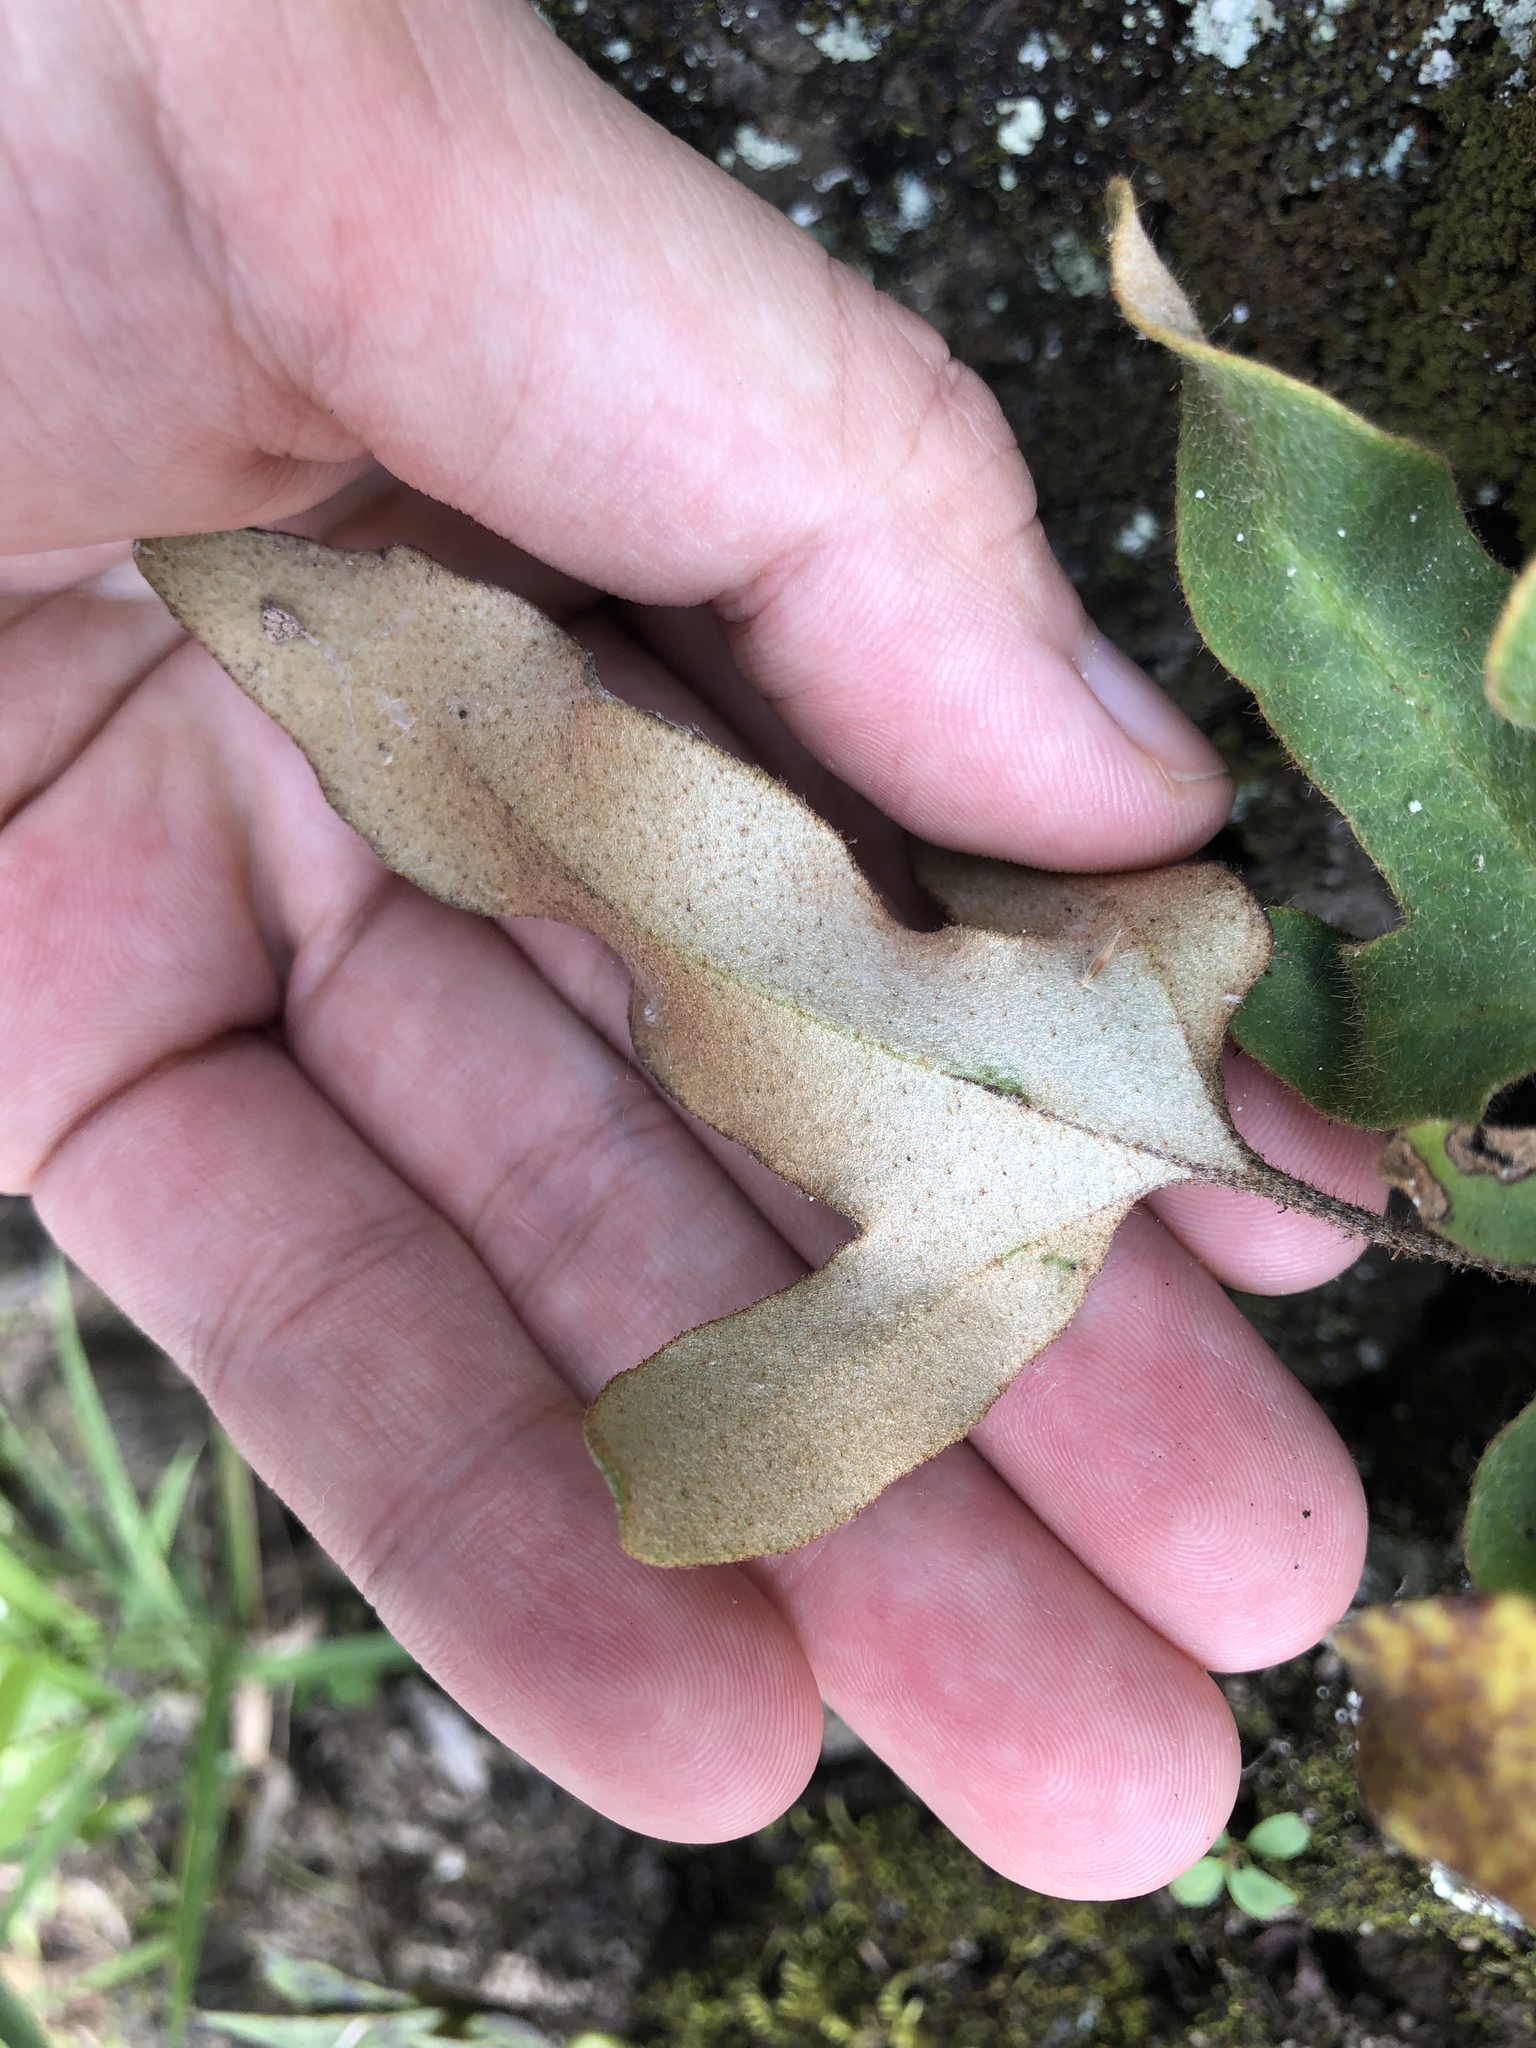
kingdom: Plantae
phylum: Tracheophyta
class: Polypodiopsida
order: Polypodiales
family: Polypodiaceae
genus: Pyrrosia
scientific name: Pyrrosia polydactyla
